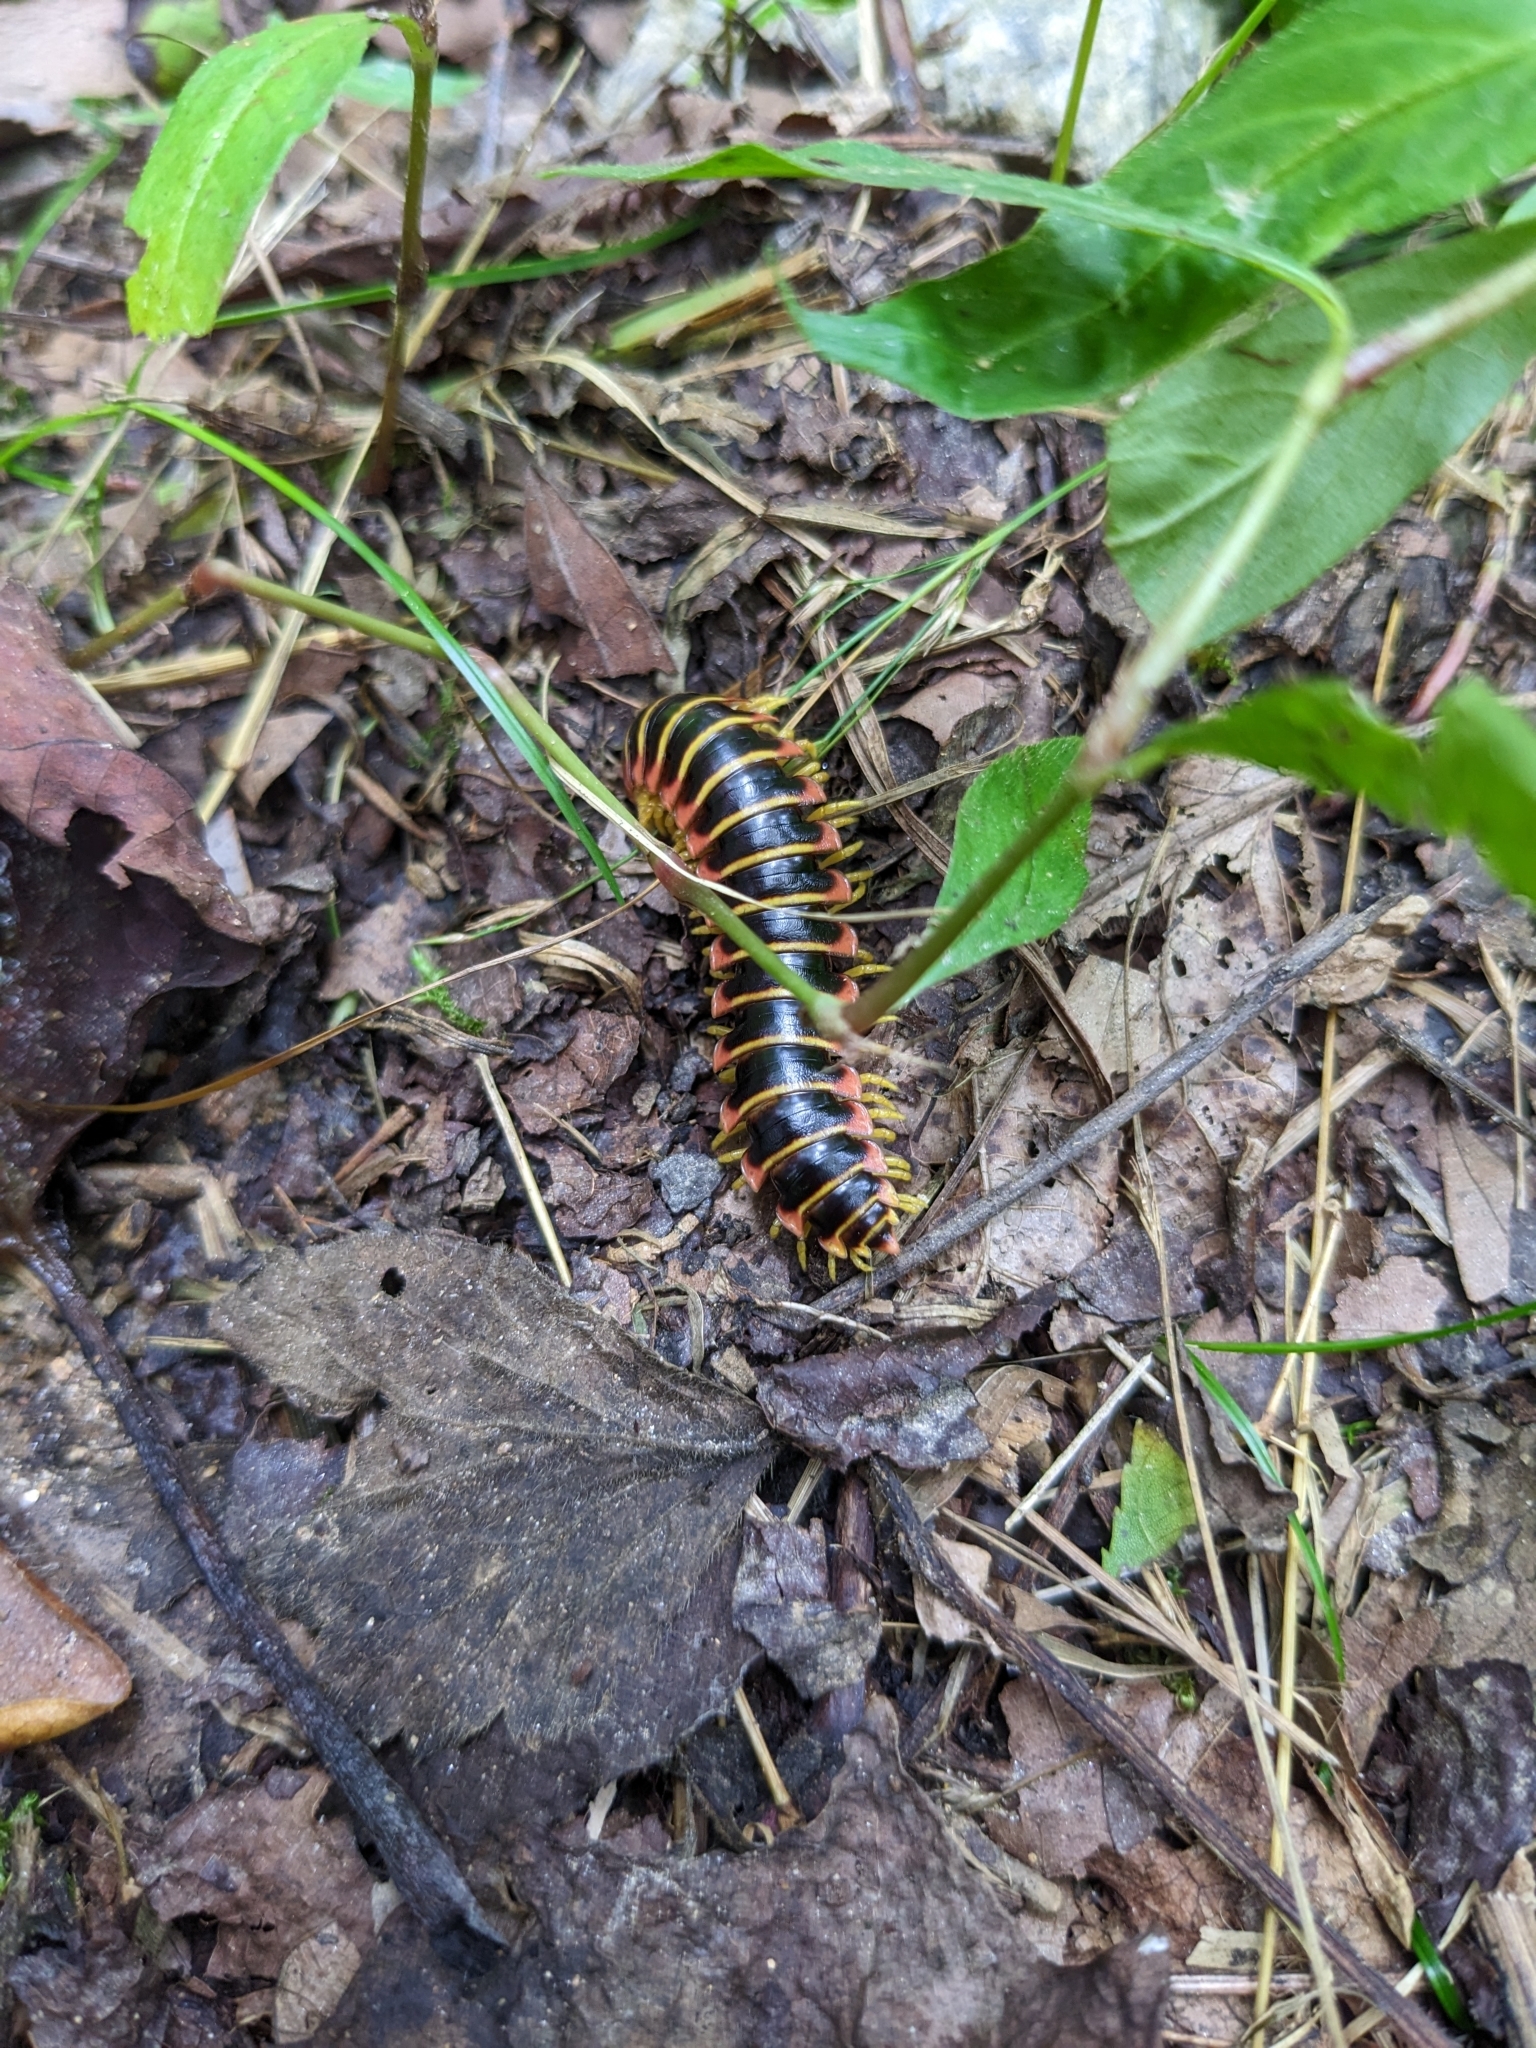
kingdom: Animalia
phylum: Arthropoda
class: Diplopoda
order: Polydesmida
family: Xystodesmidae
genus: Apheloria
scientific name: Apheloria virginiensis
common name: Black-and-gold flat millipede
